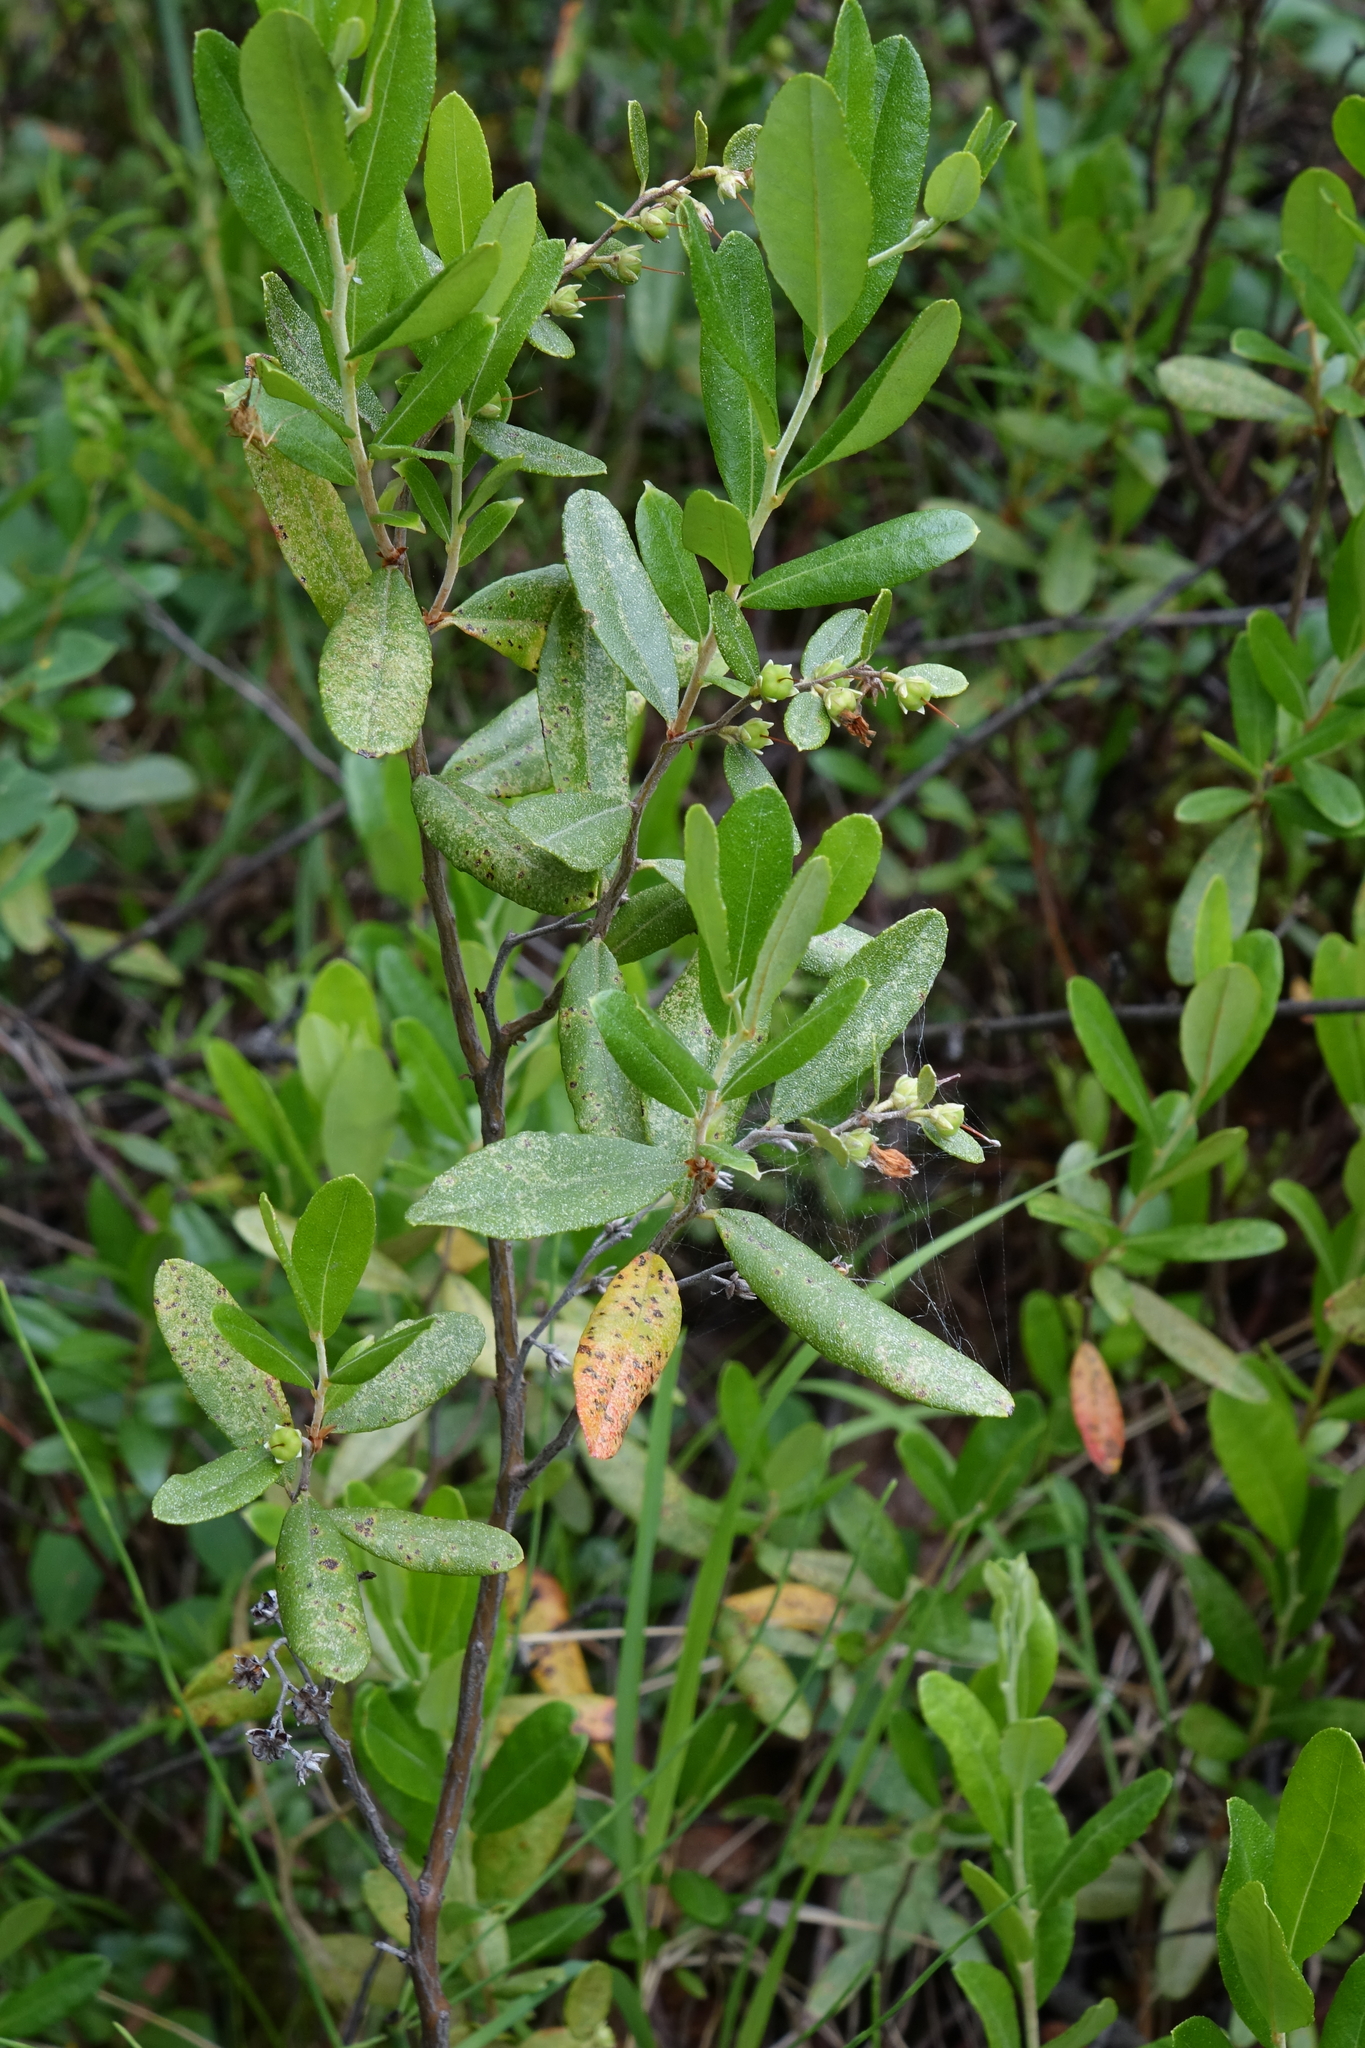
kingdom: Plantae
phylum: Tracheophyta
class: Magnoliopsida
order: Ericales
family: Ericaceae
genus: Chamaedaphne
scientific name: Chamaedaphne calyculata
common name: Leatherleaf
